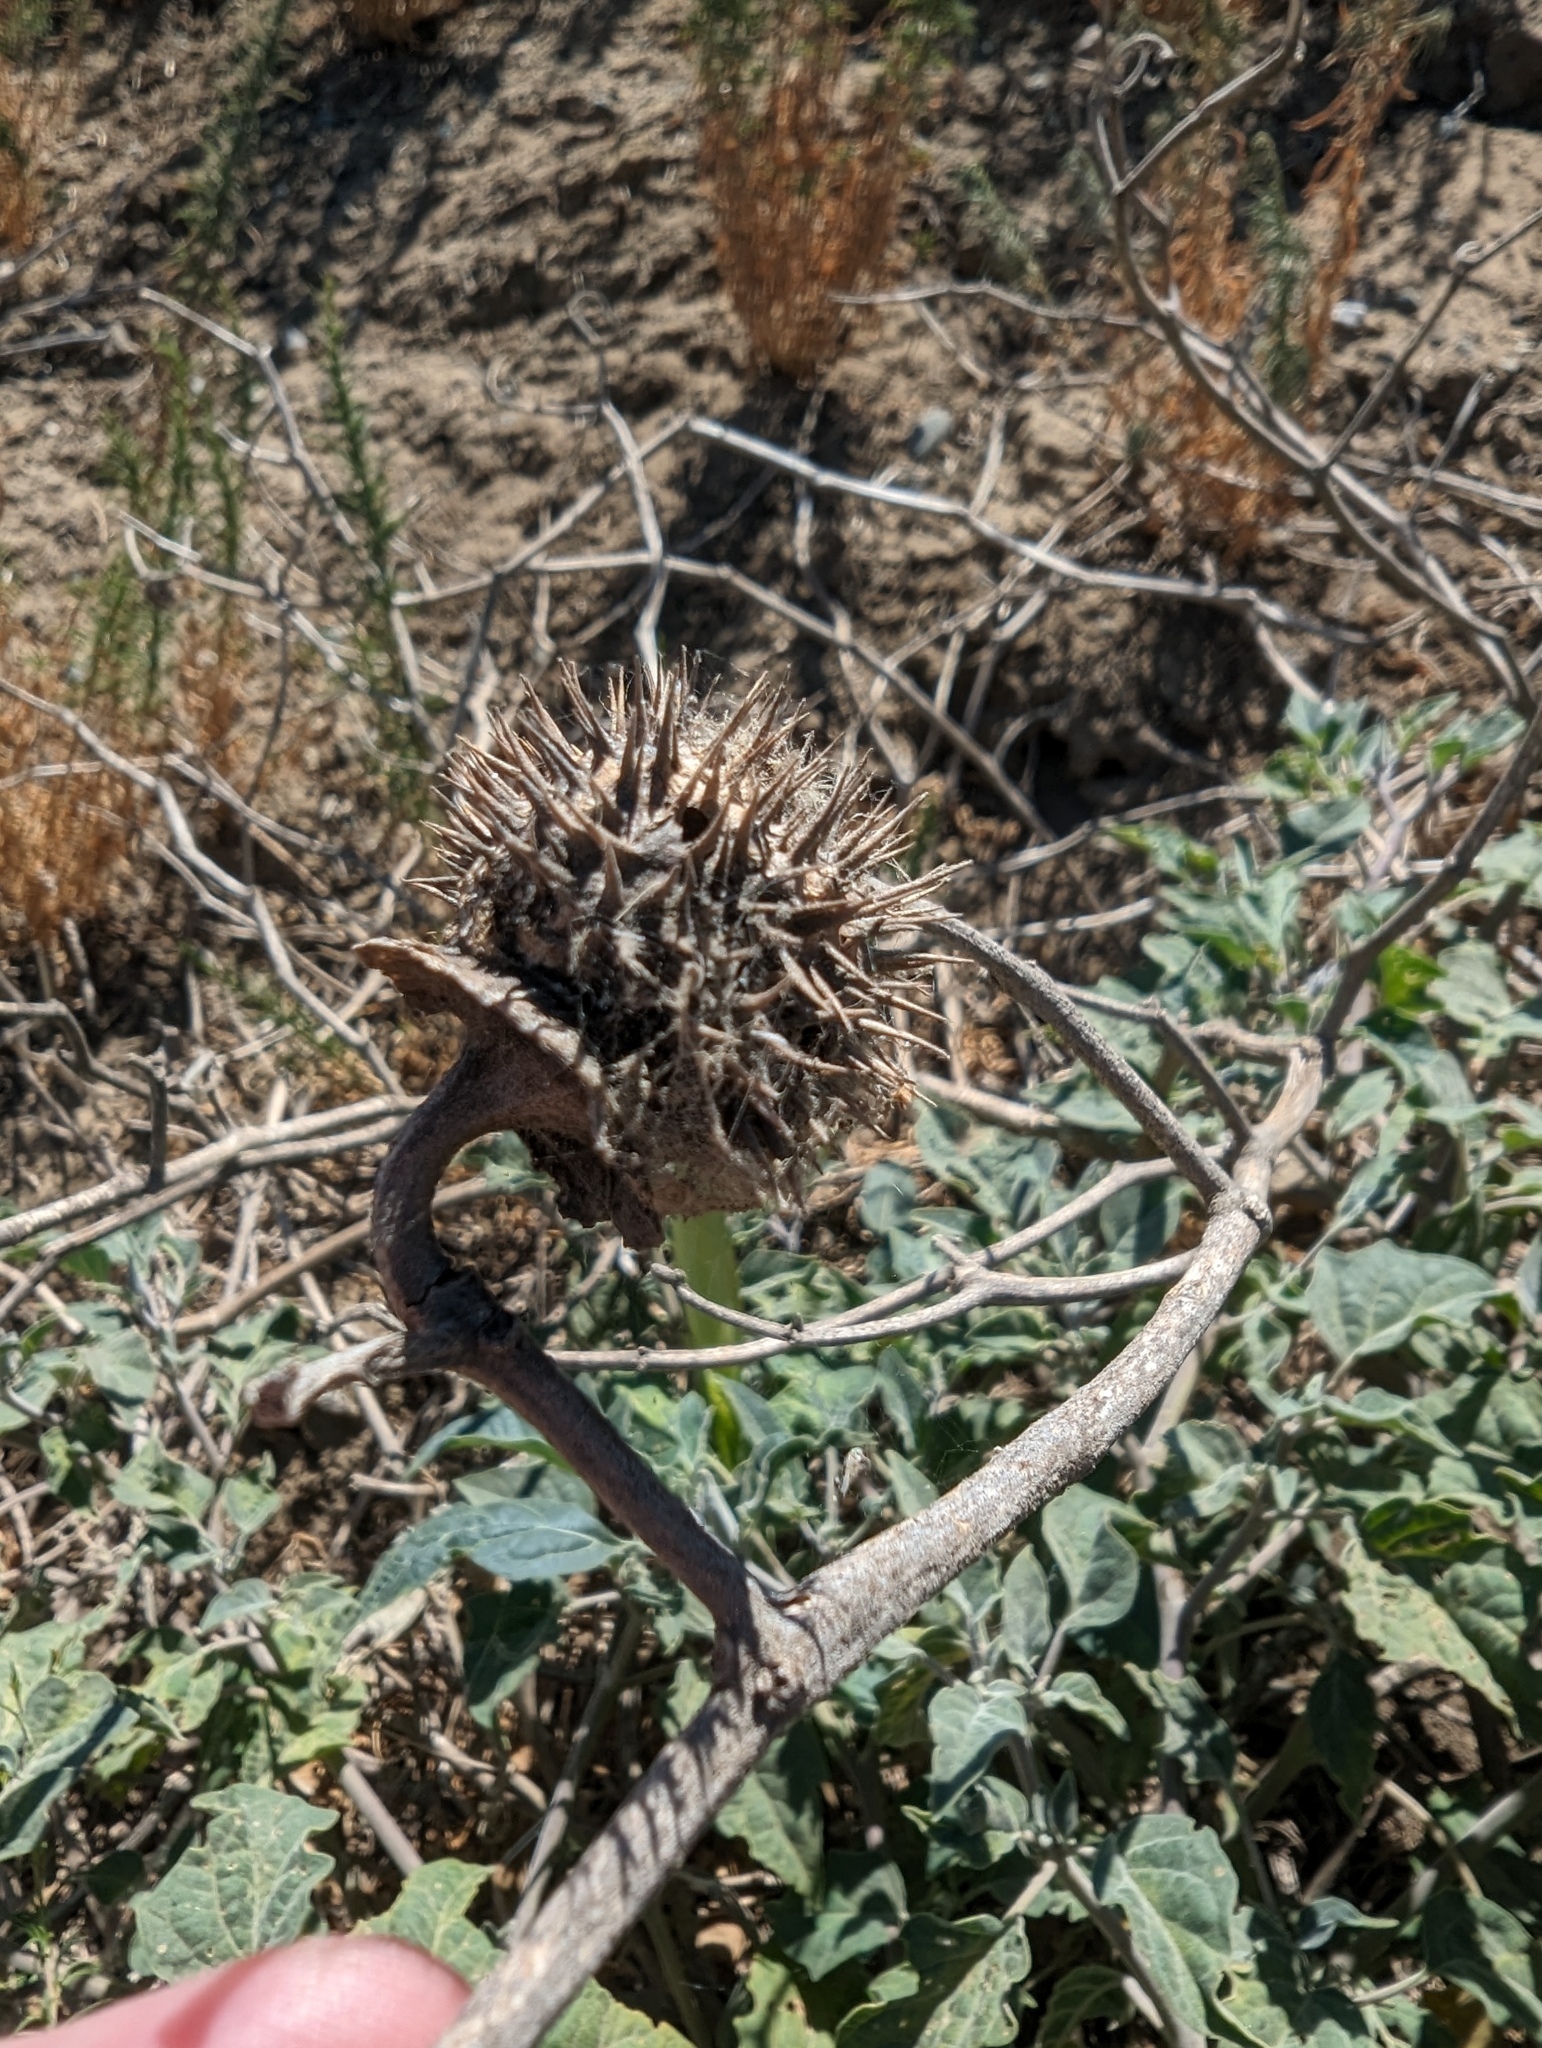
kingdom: Plantae
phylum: Tracheophyta
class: Magnoliopsida
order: Solanales
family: Solanaceae
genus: Datura
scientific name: Datura wrightii
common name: Sacred thorn-apple
